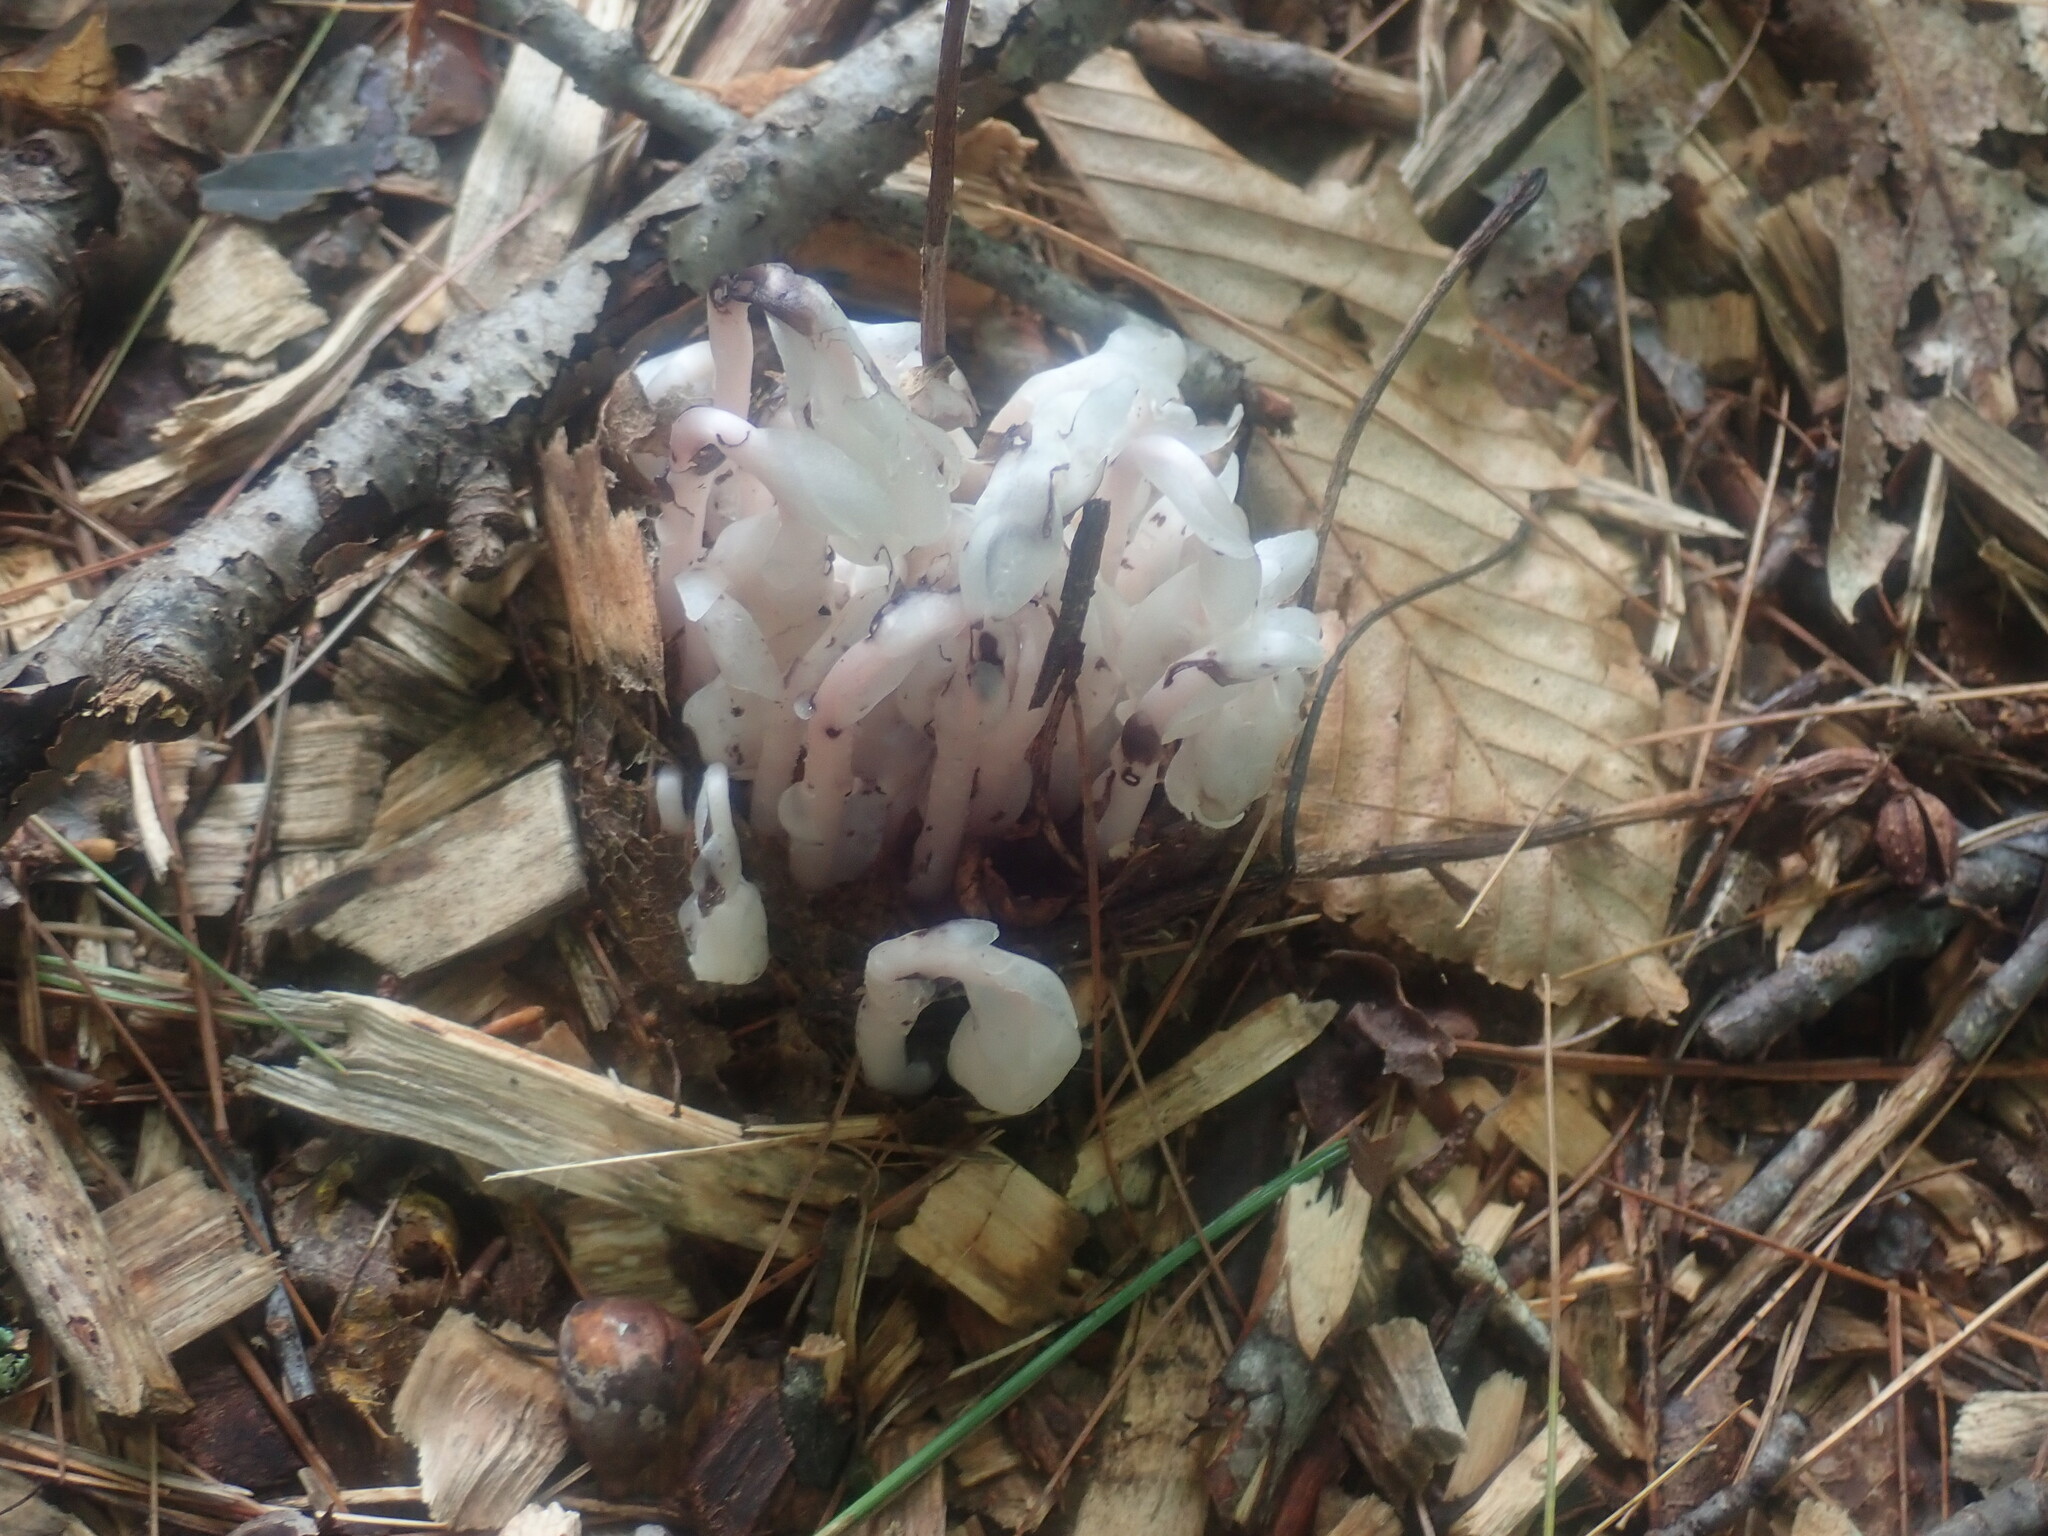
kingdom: Plantae
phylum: Tracheophyta
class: Magnoliopsida
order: Ericales
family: Ericaceae
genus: Monotropa
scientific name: Monotropa uniflora
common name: Convulsion root
